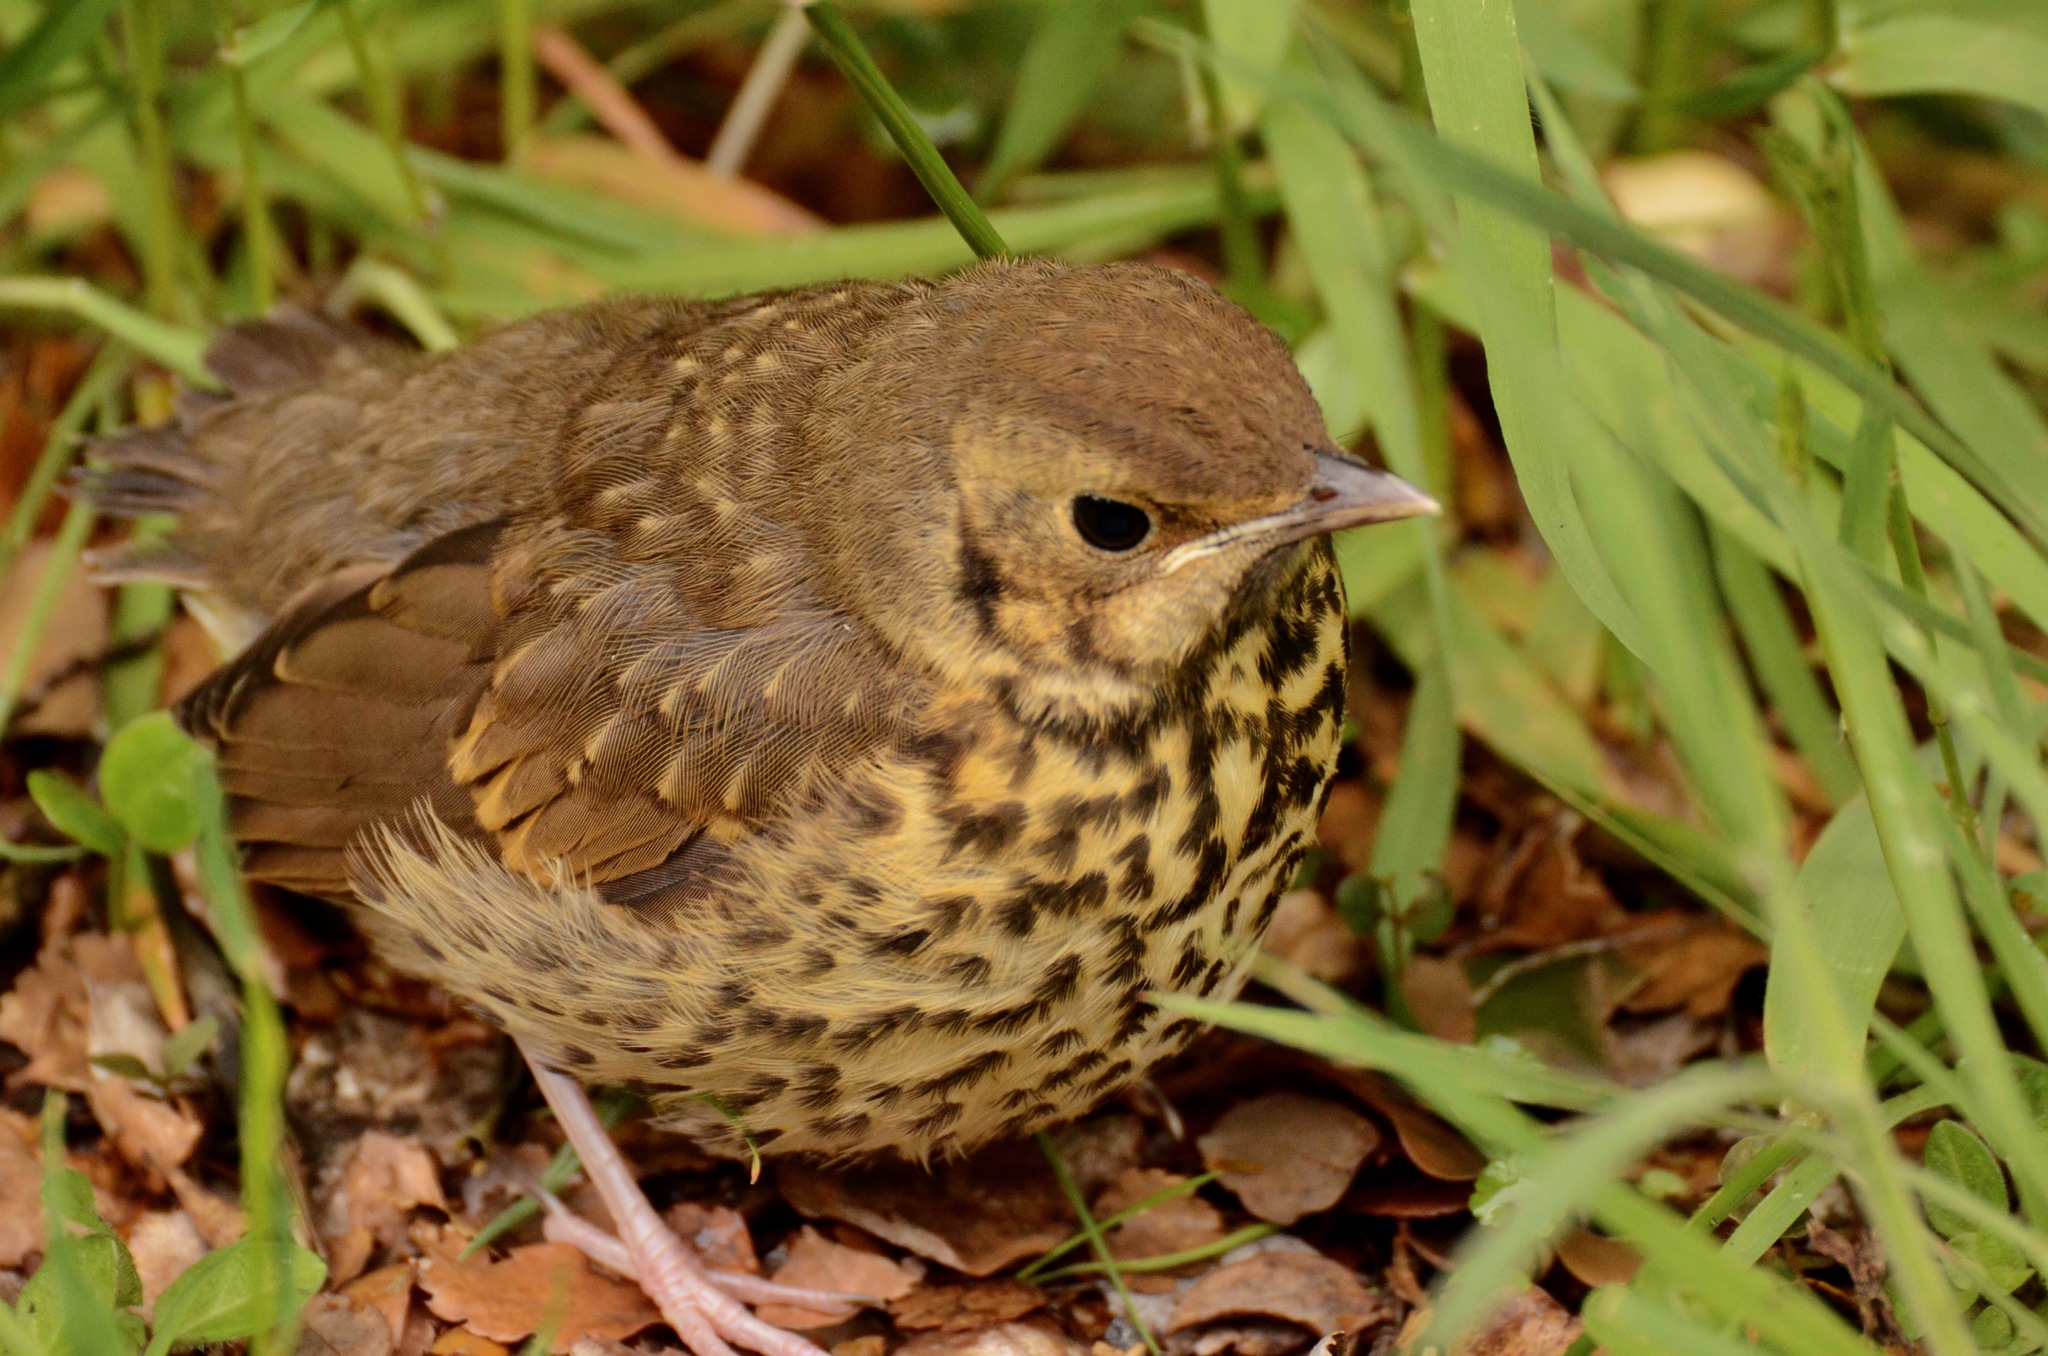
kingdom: Animalia
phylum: Chordata
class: Aves
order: Passeriformes
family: Turdidae
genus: Turdus
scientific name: Turdus philomelos
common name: Song thrush
